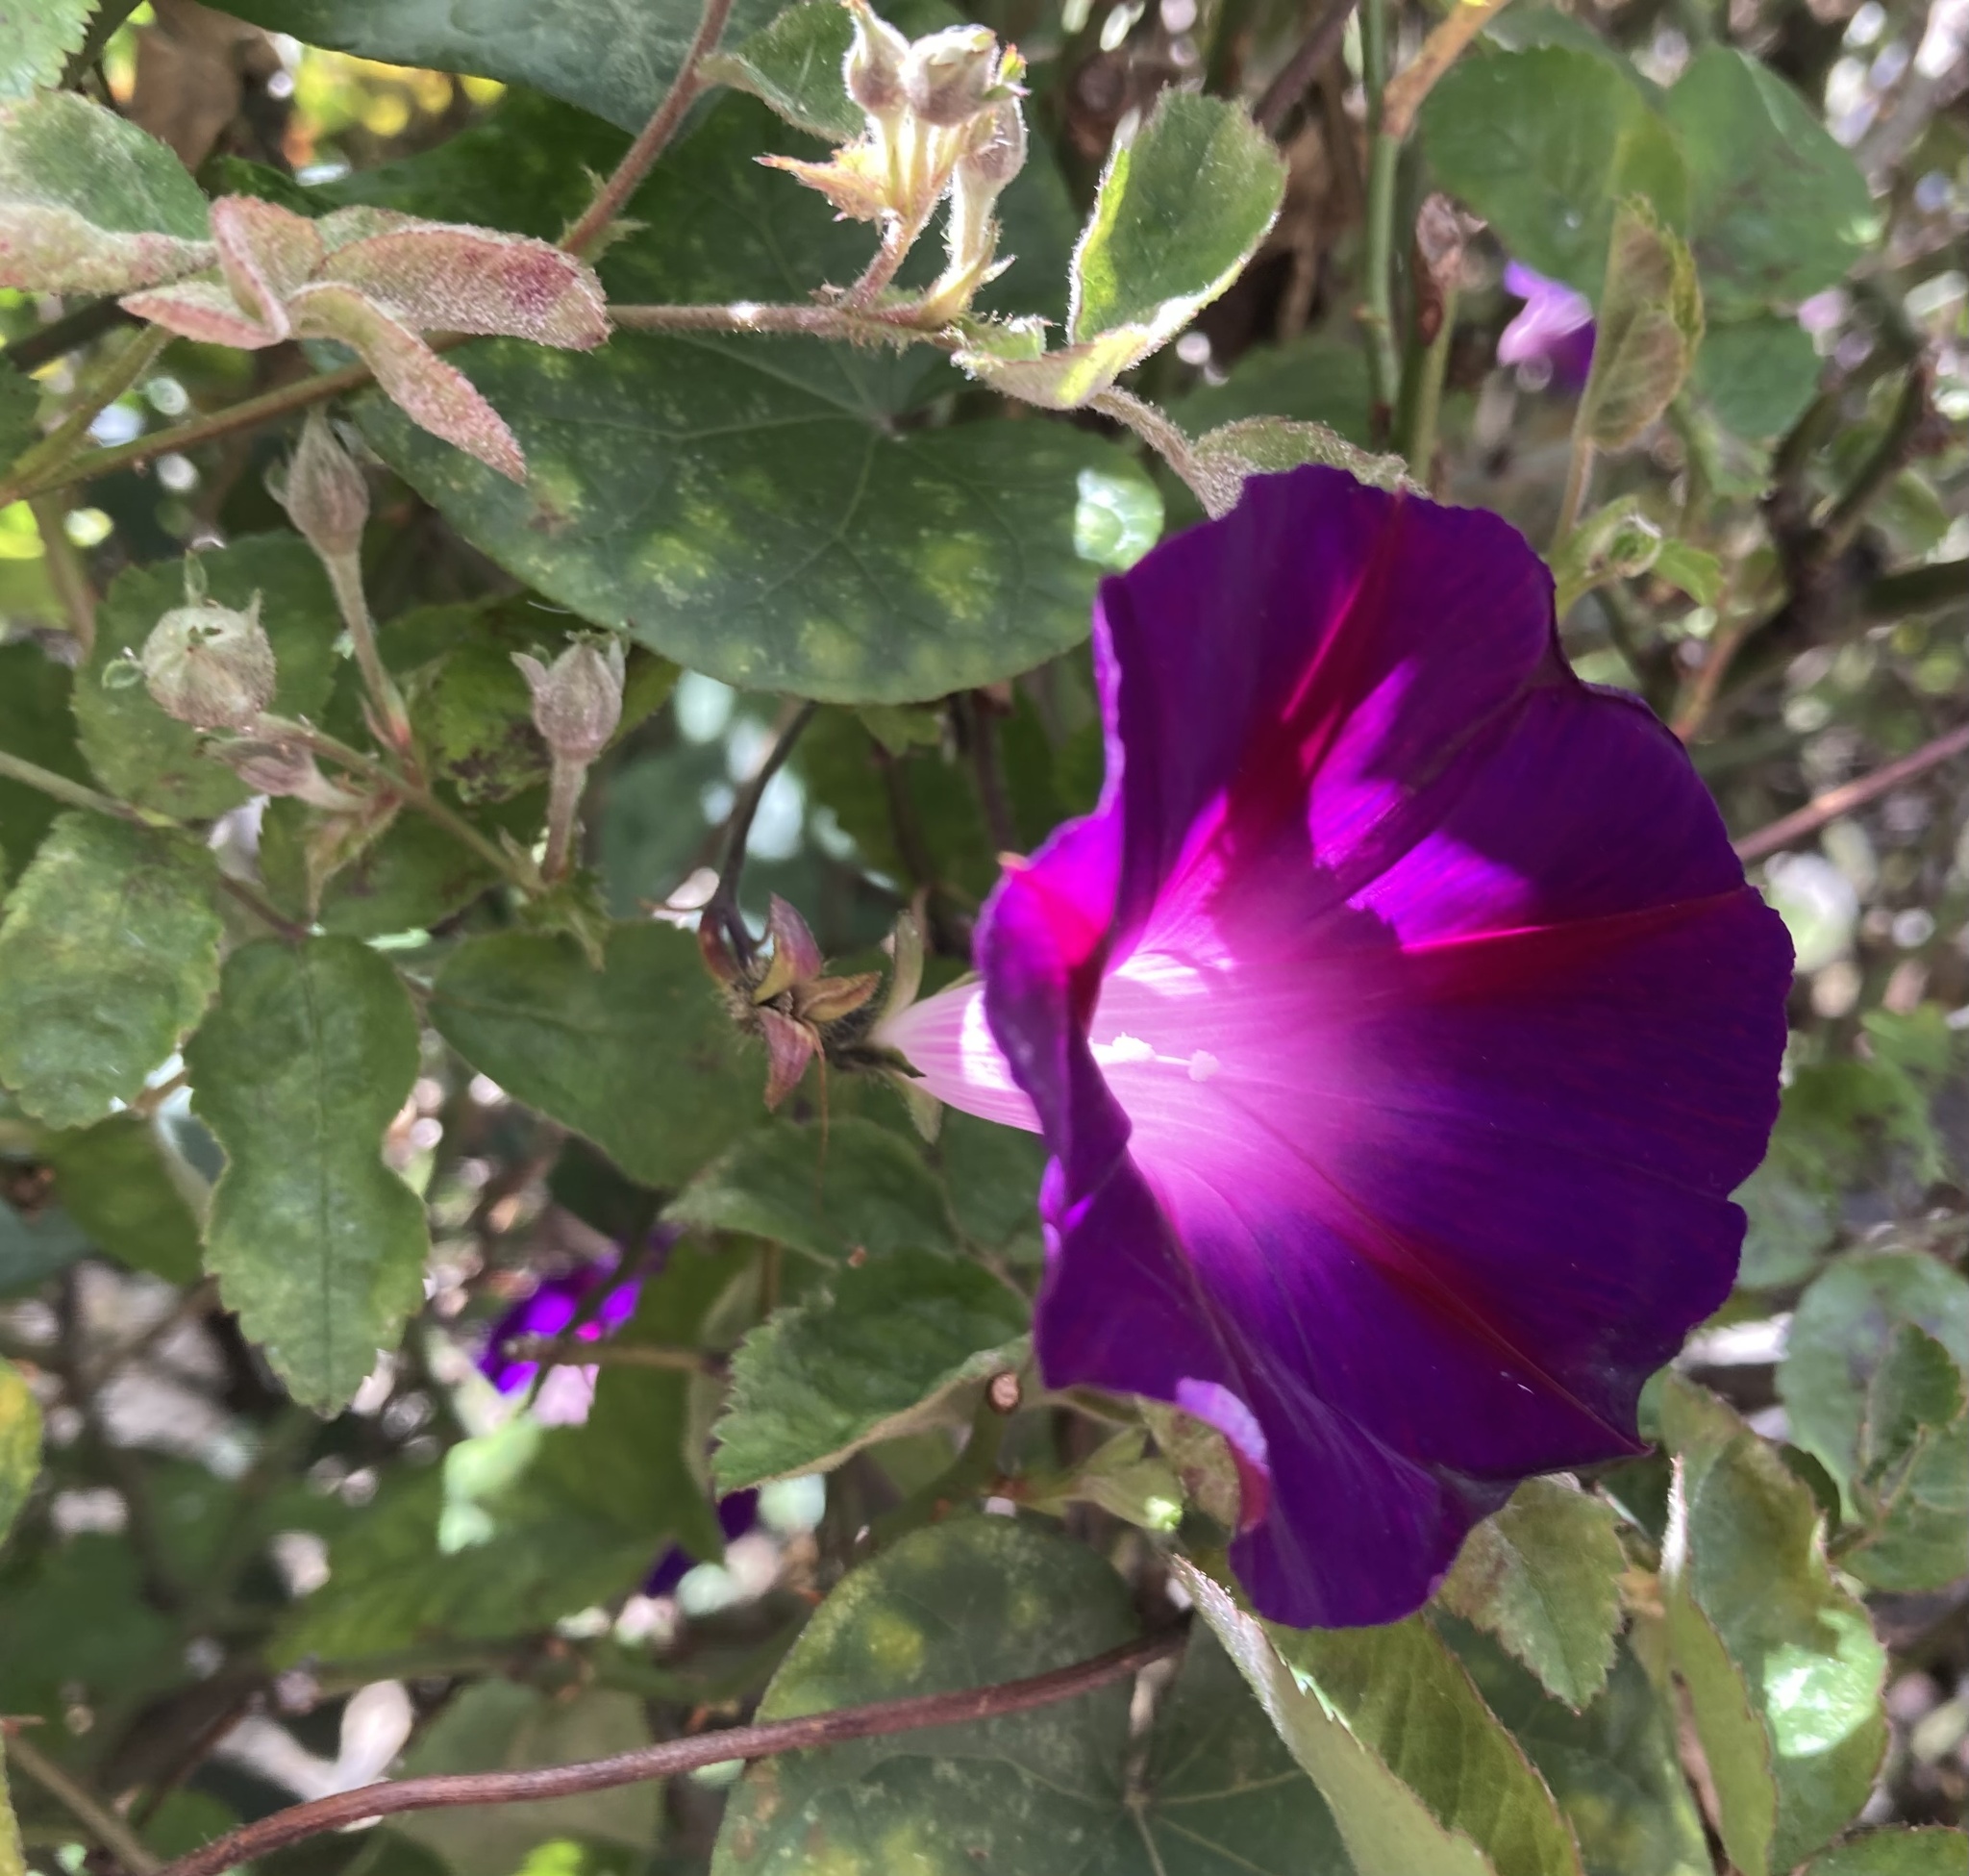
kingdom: Plantae
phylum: Tracheophyta
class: Magnoliopsida
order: Solanales
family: Convolvulaceae
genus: Ipomoea
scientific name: Ipomoea purpurea
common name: Common morning-glory
